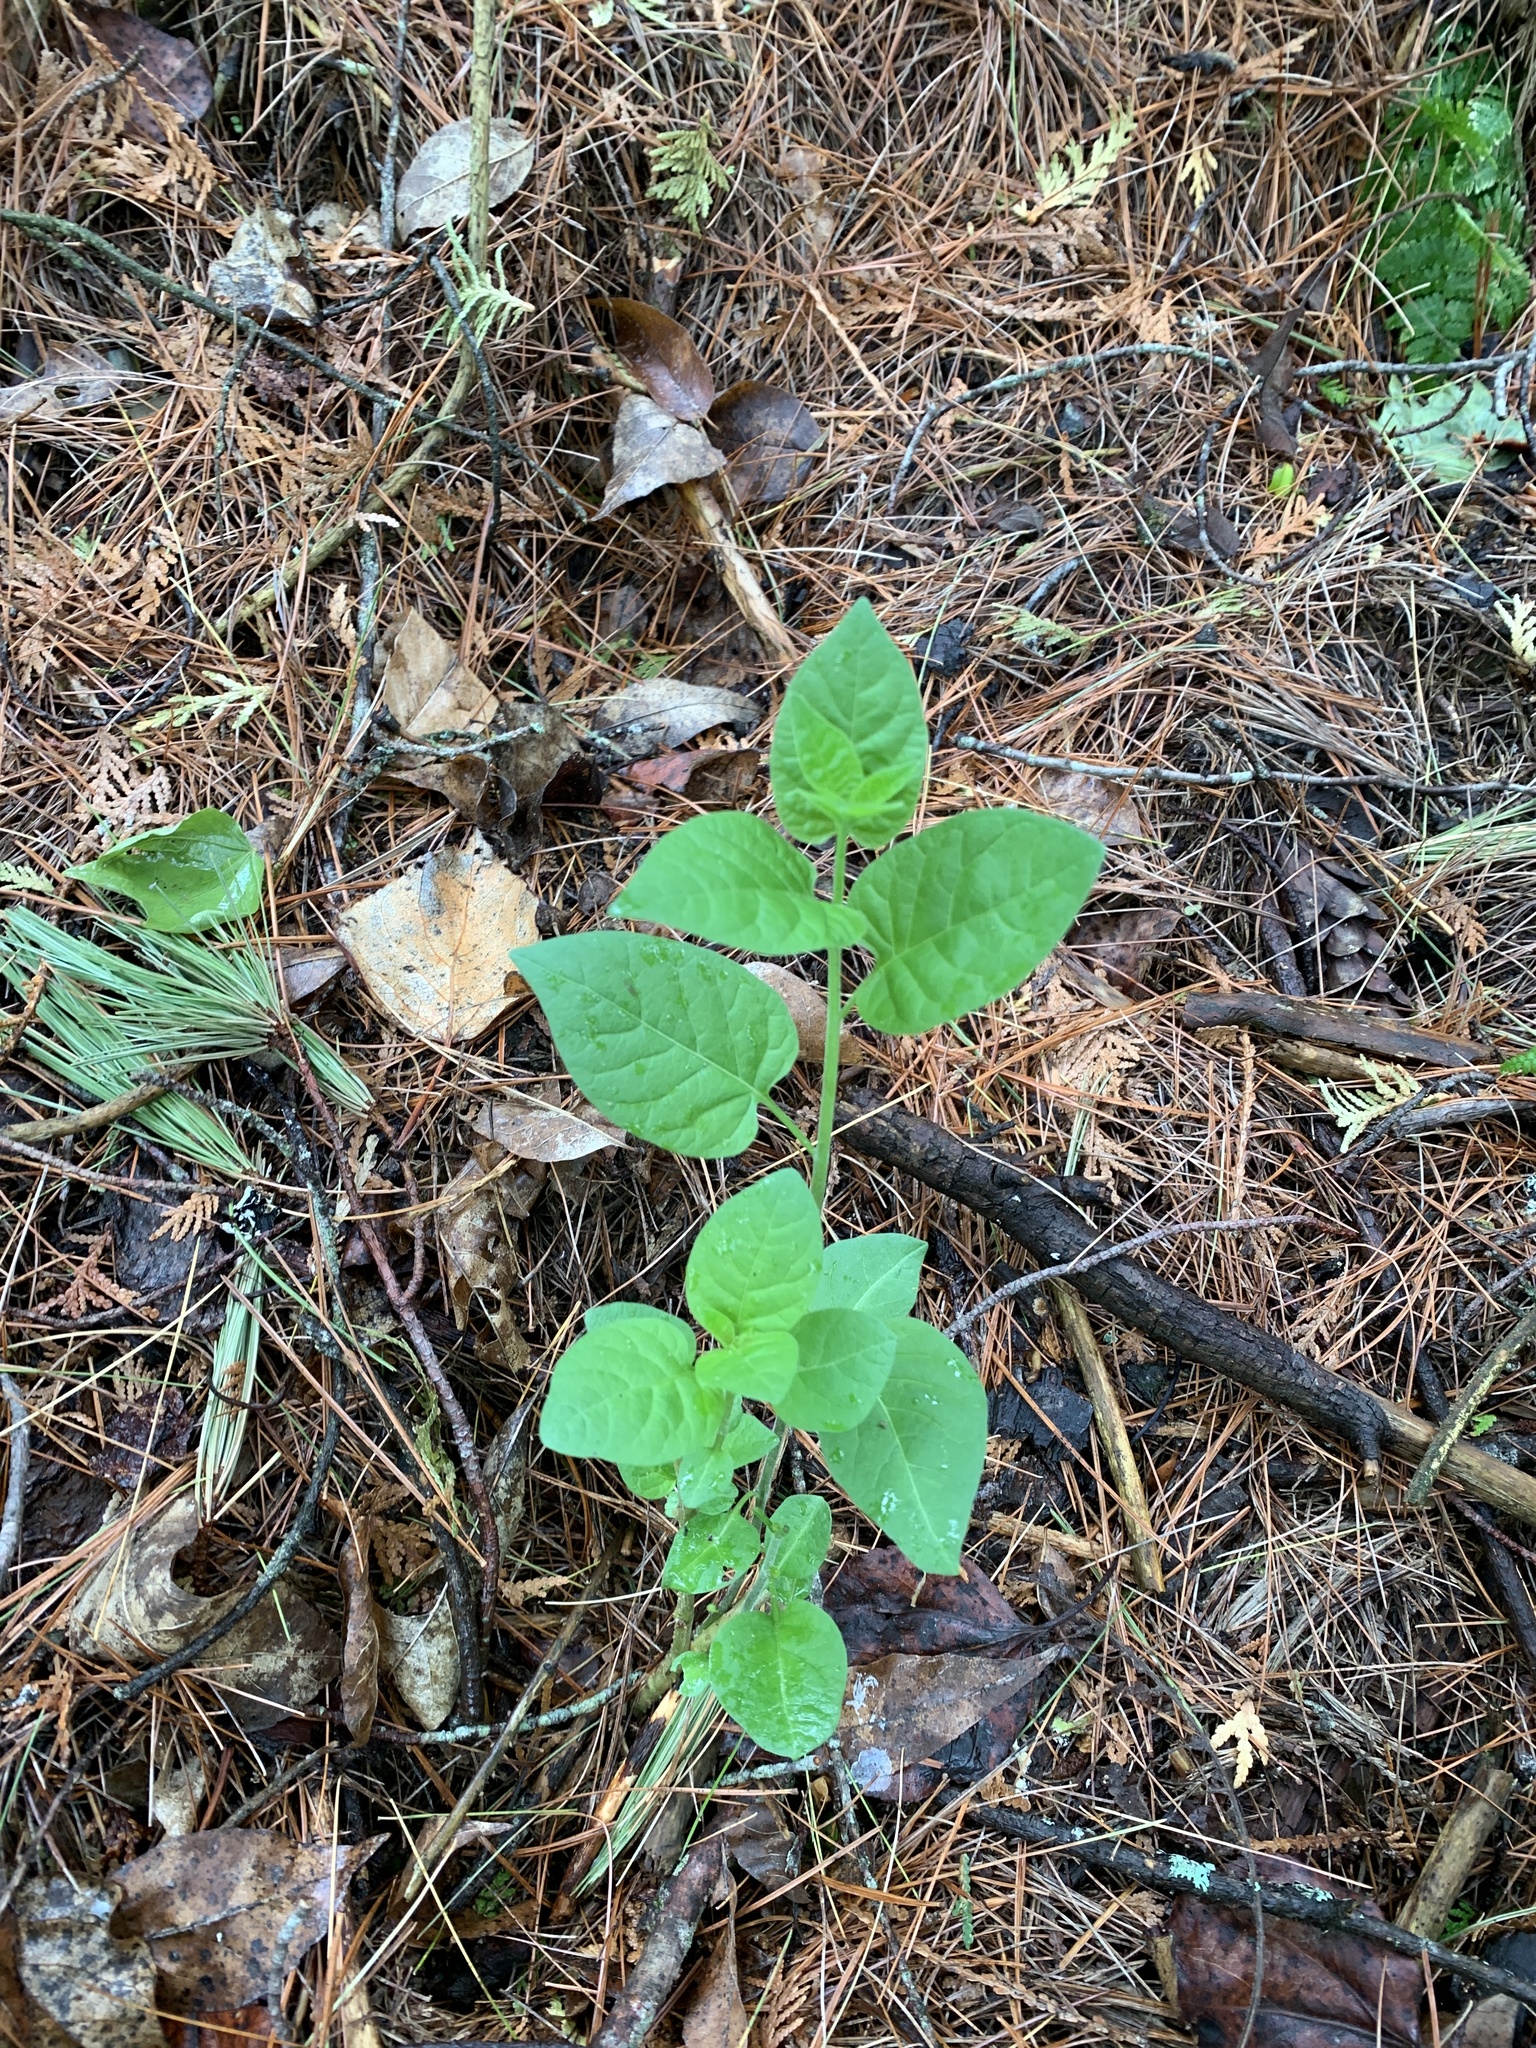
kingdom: Plantae
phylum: Tracheophyta
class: Magnoliopsida
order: Solanales
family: Solanaceae
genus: Solanum
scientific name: Solanum dulcamara
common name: Climbing nightshade
